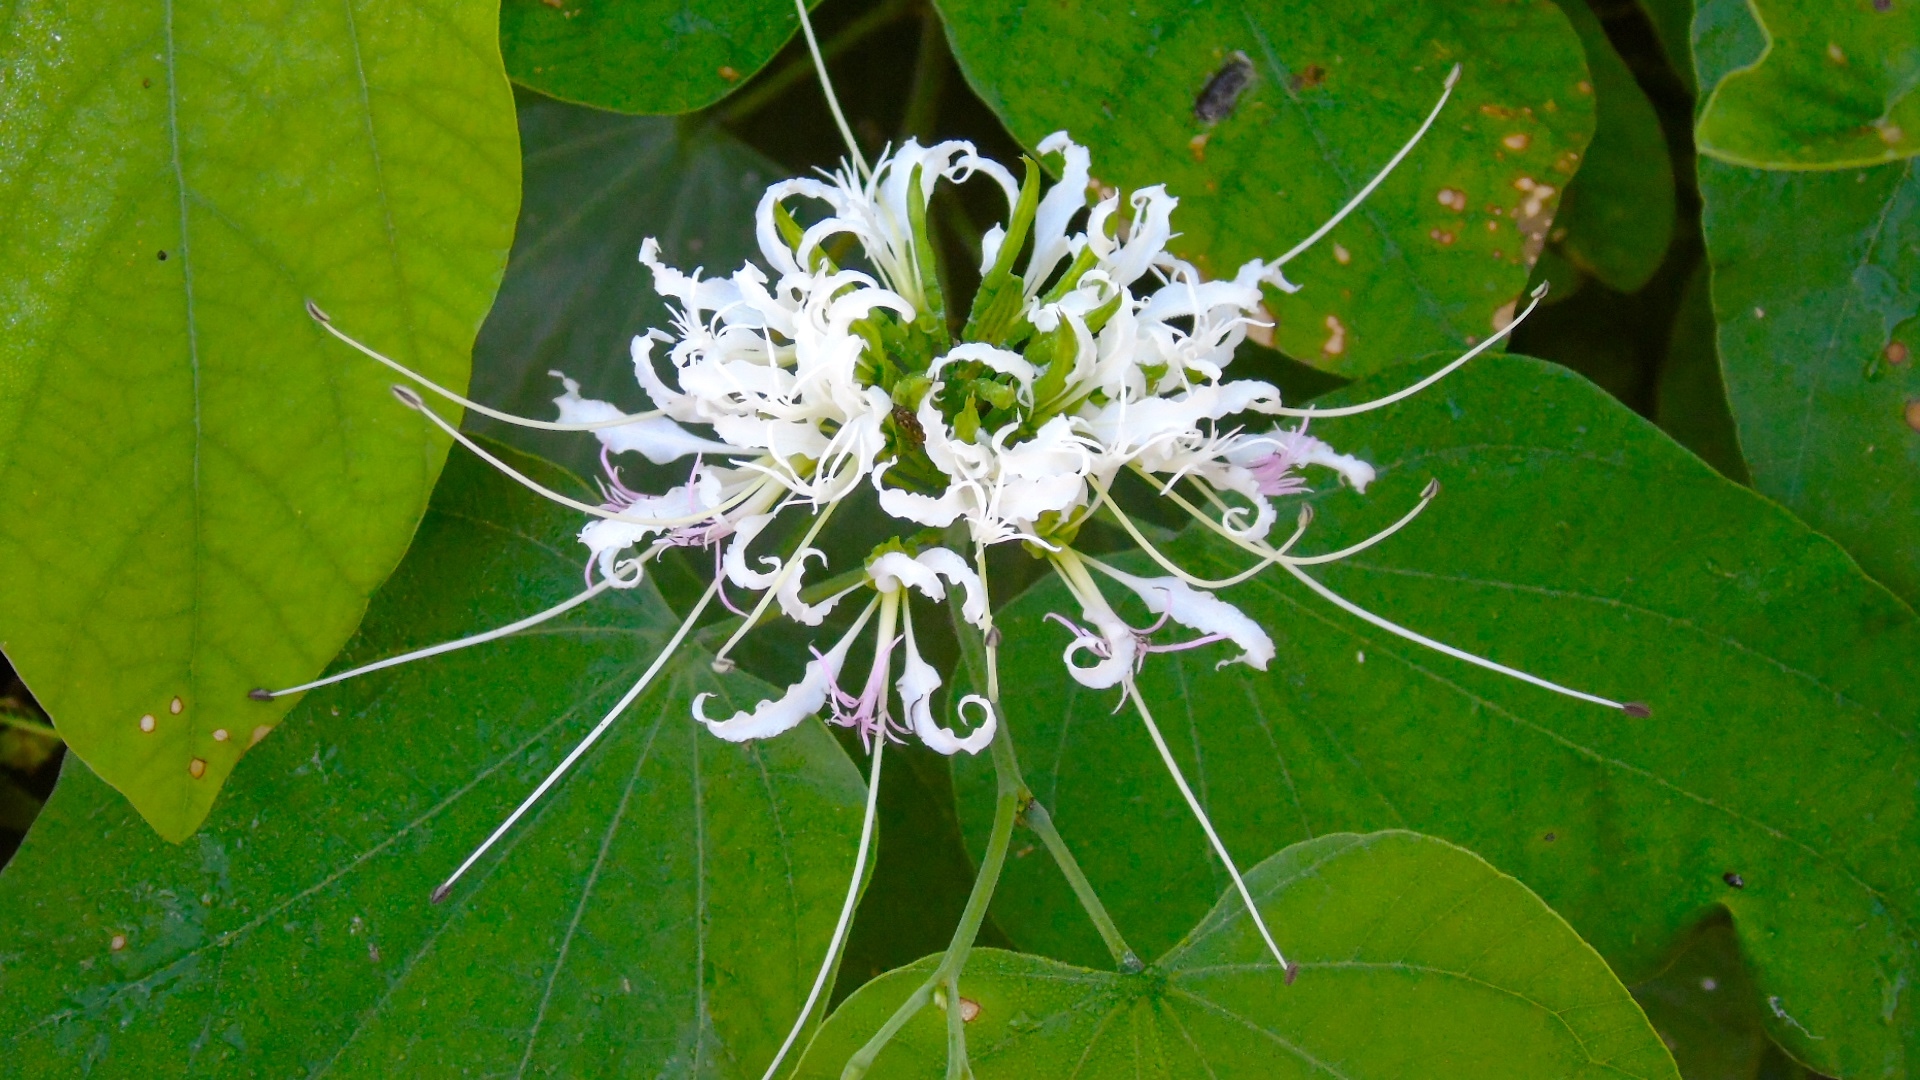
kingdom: Plantae
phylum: Tracheophyta
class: Magnoliopsida
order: Fabales
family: Fabaceae
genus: Bauhinia
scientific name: Bauhinia divaricata
